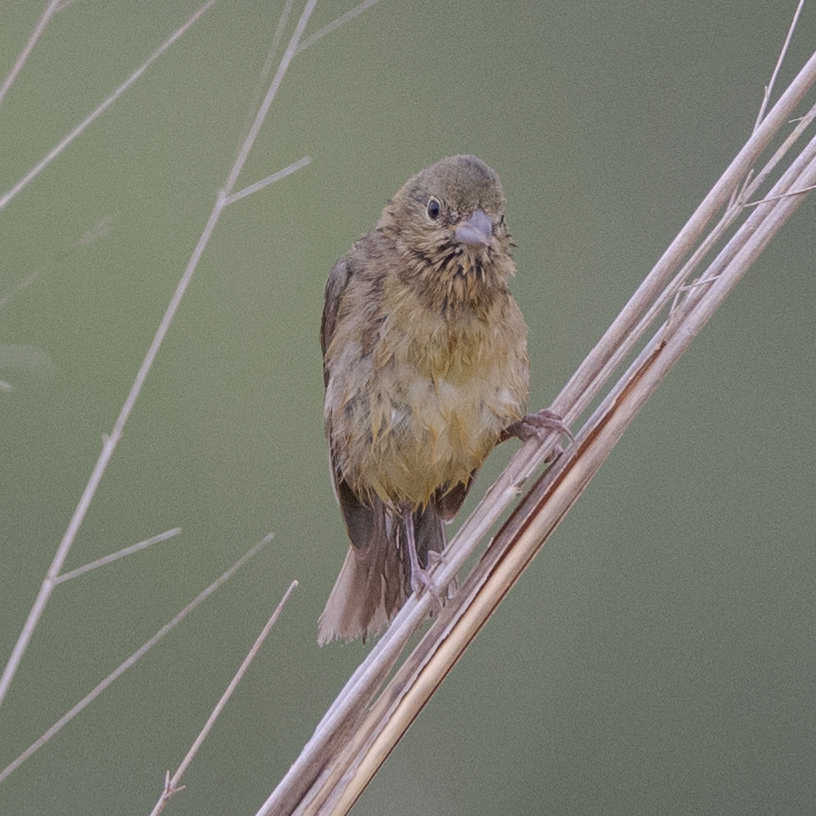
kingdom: Animalia
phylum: Chordata
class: Aves
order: Passeriformes
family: Cardinalidae
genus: Passerina
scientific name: Passerina ciris
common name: Painted bunting
